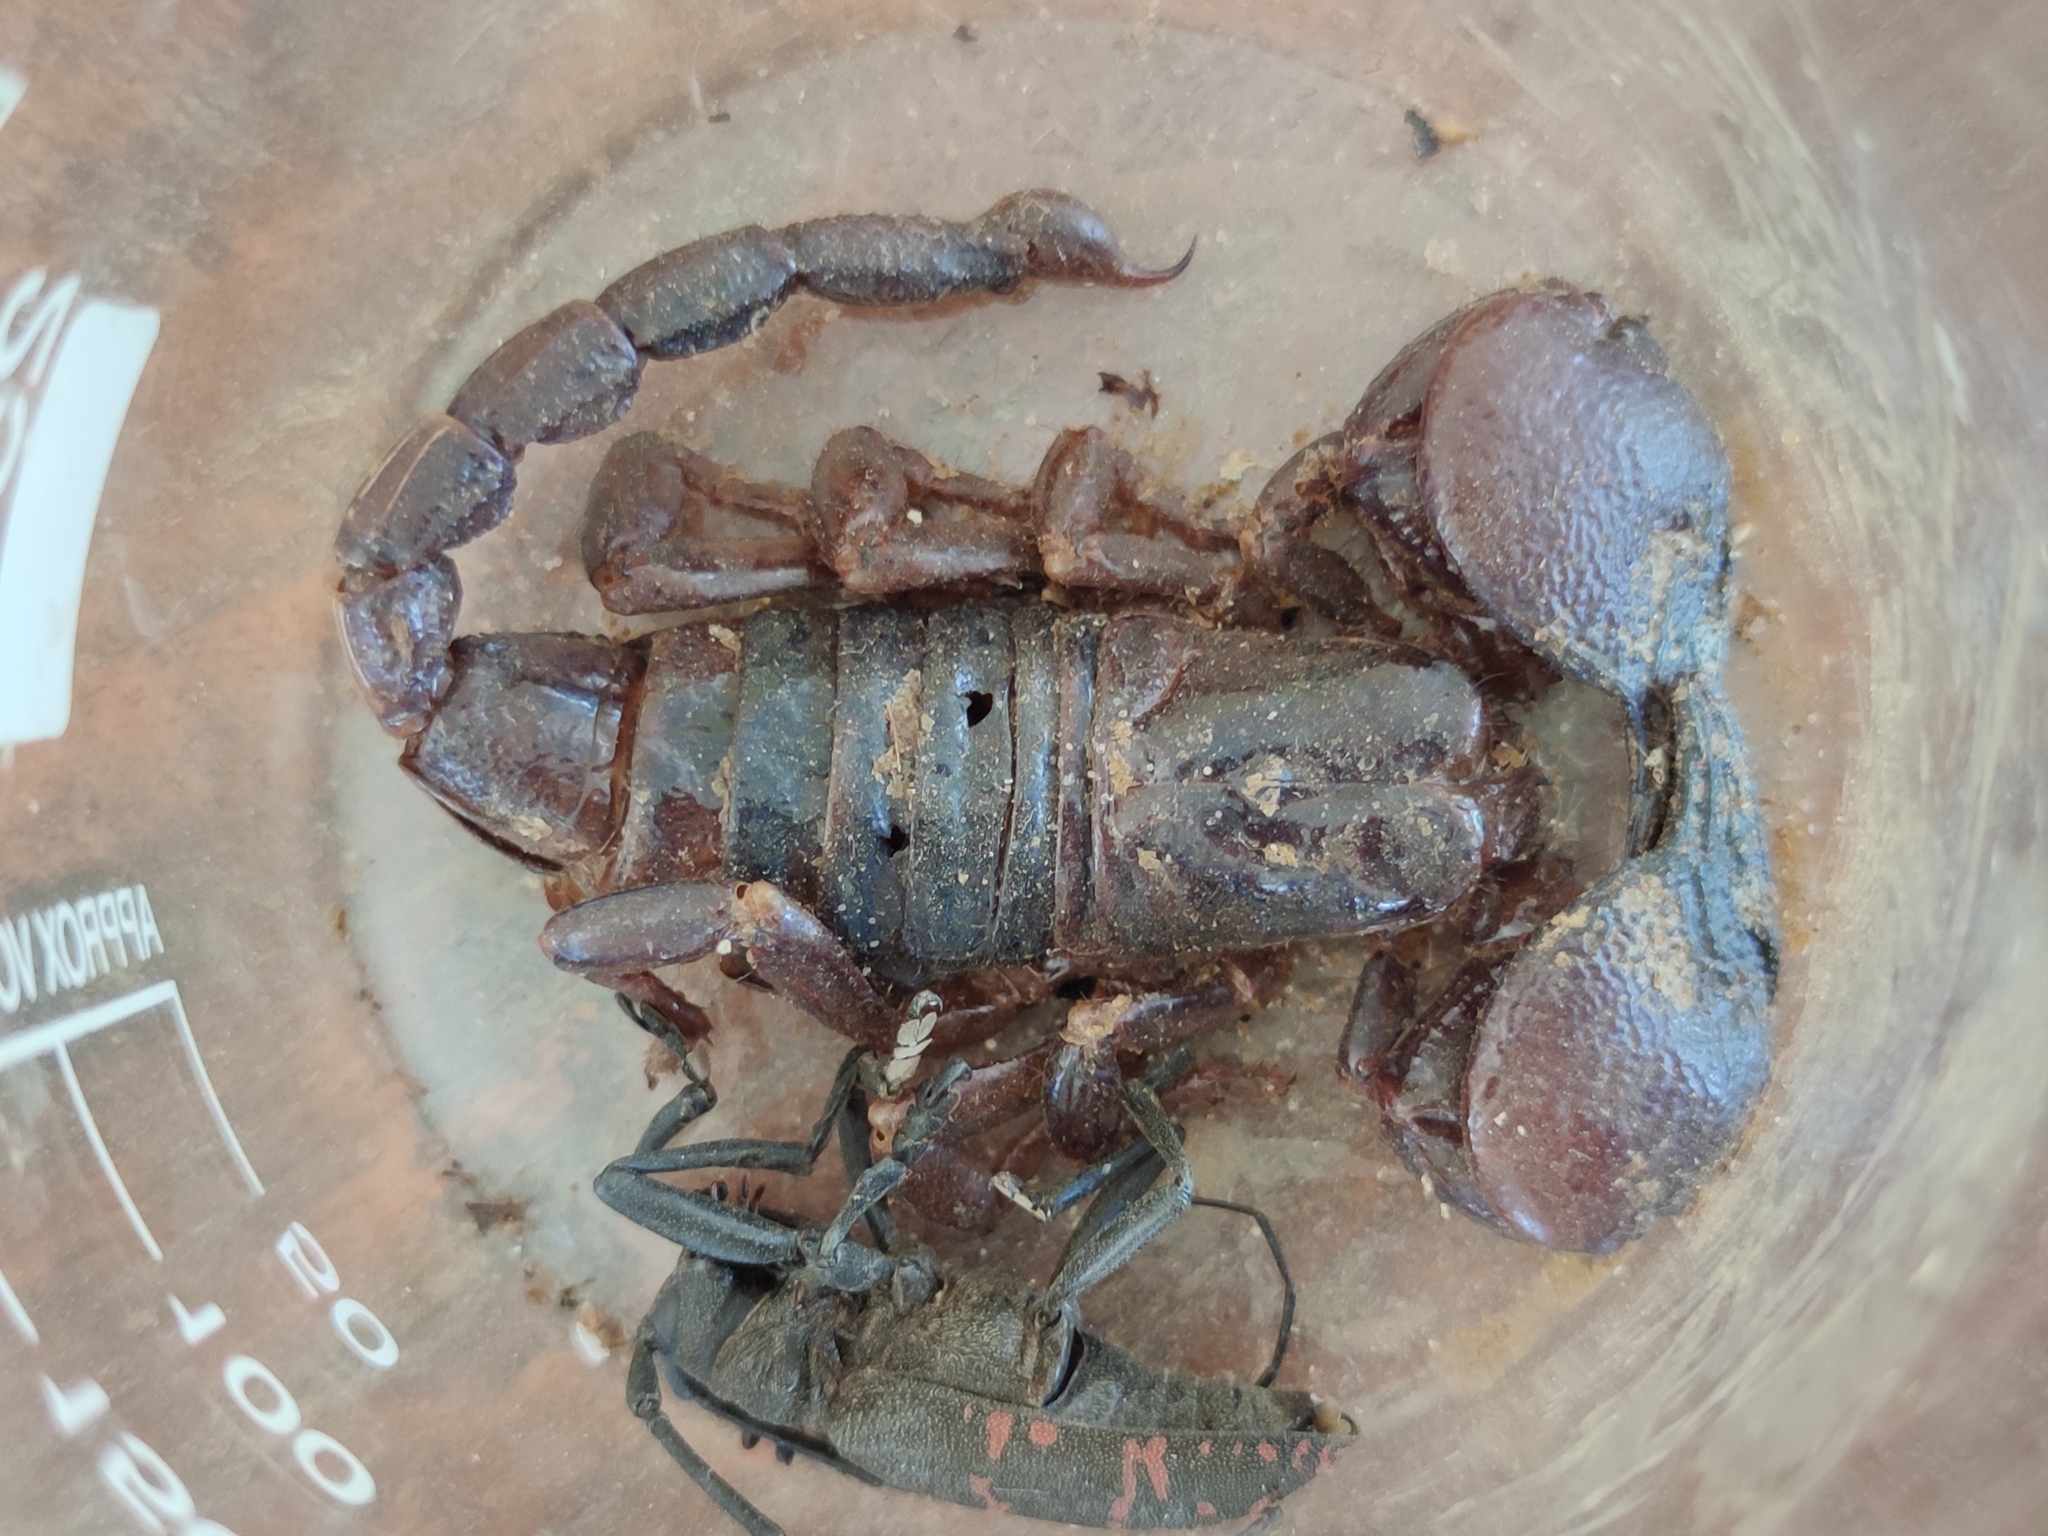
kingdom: Animalia
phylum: Arthropoda
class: Arachnida
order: Scorpiones
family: Scorpionidae
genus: Pandinoides
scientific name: Pandinoides cavimanus
